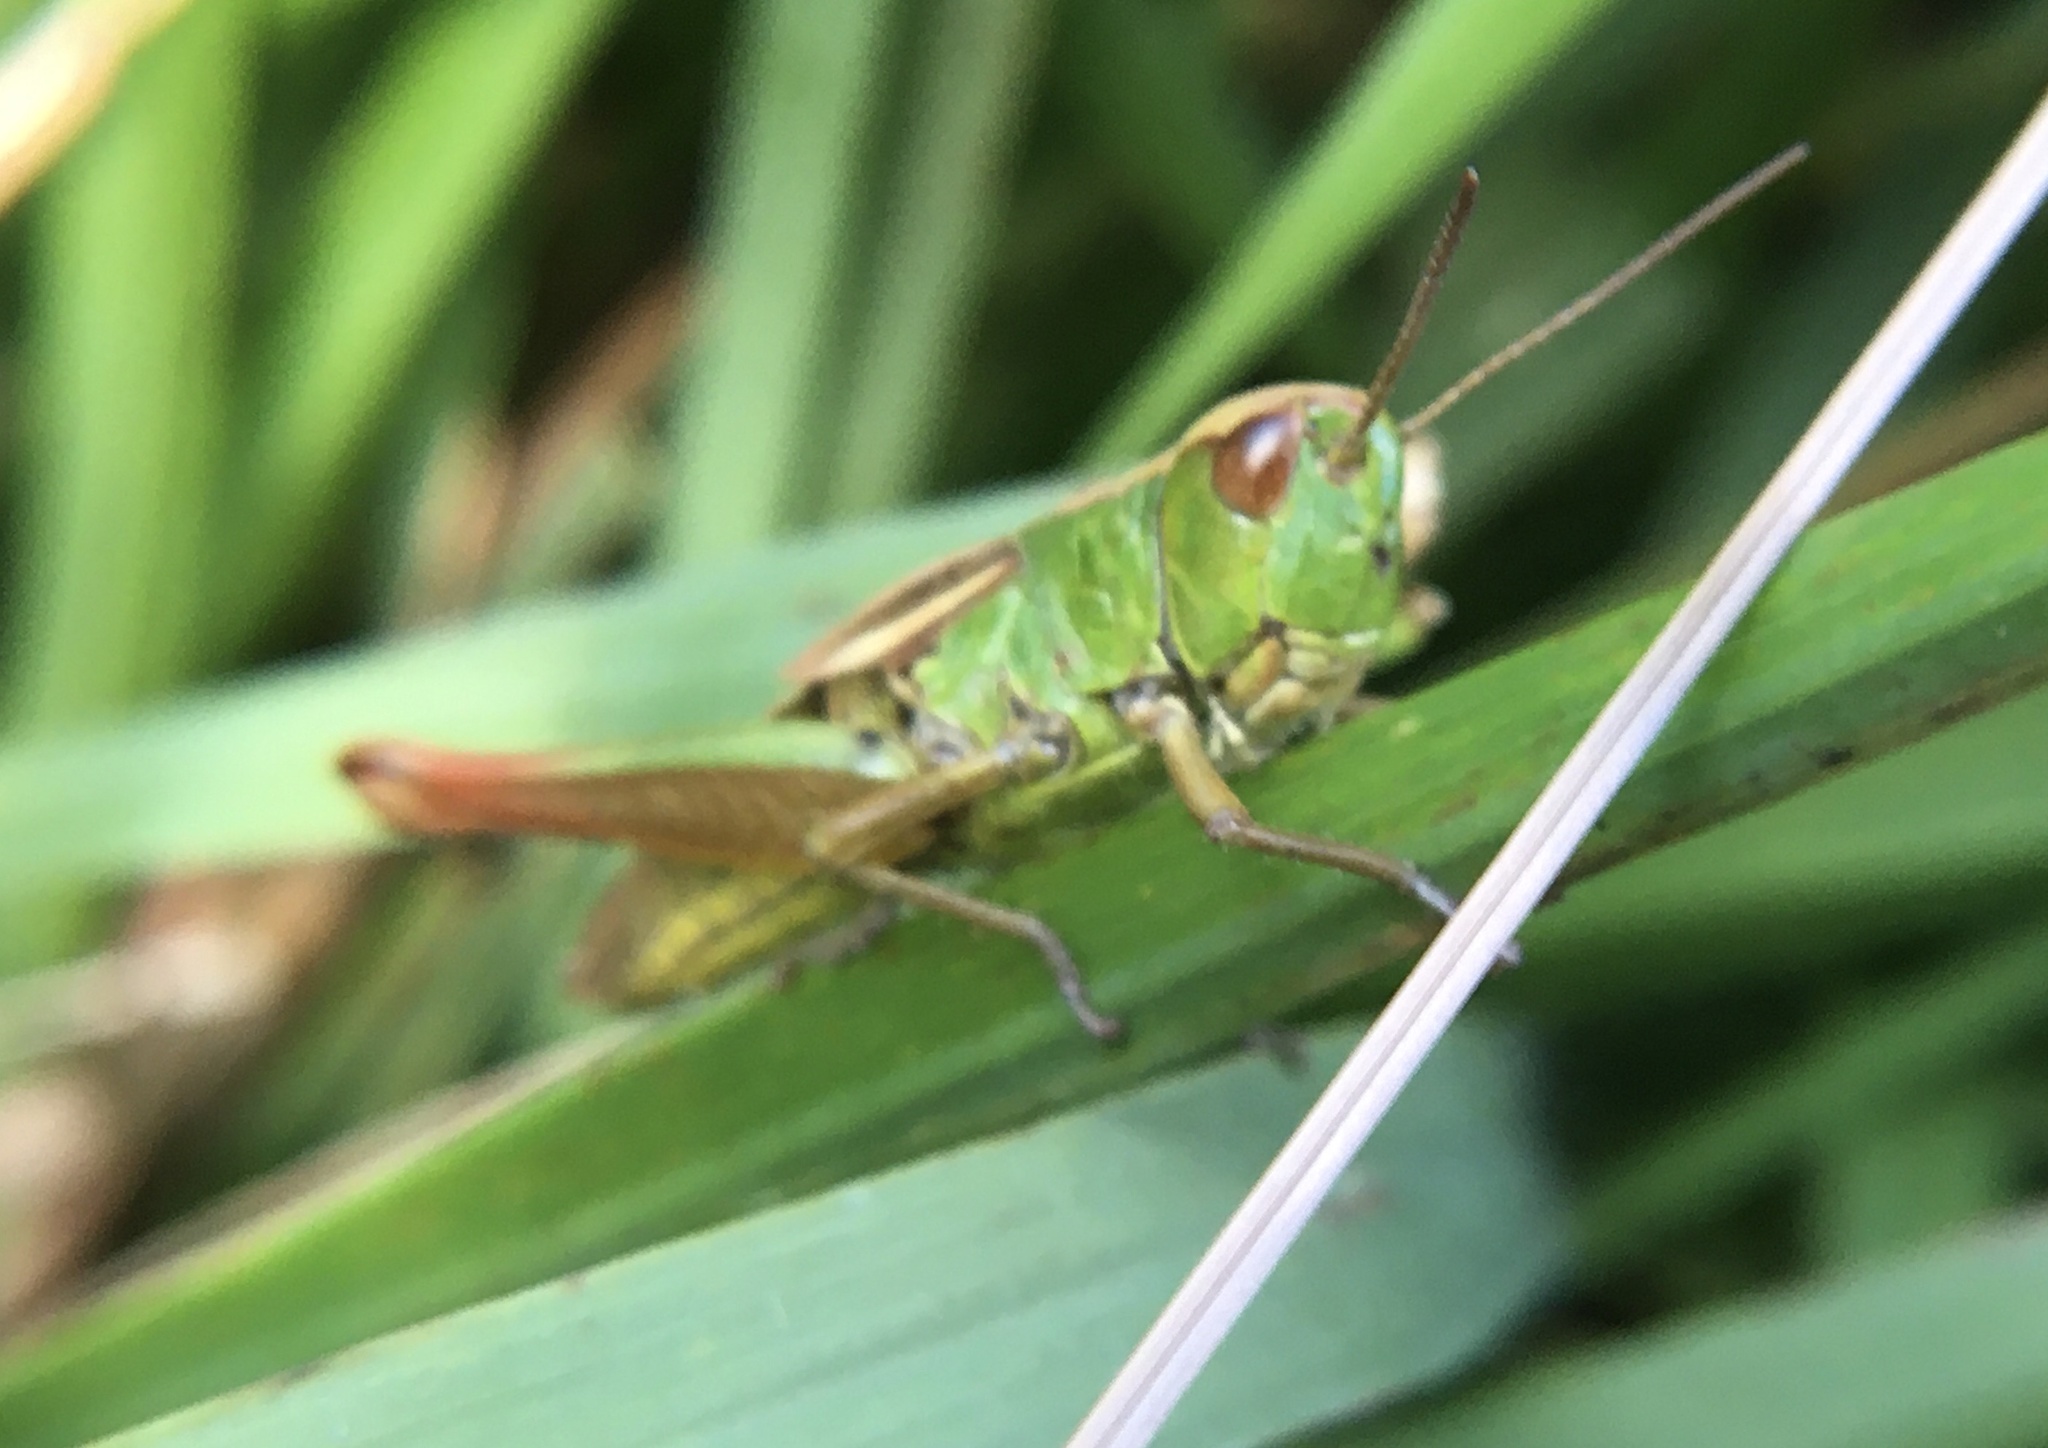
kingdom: Animalia
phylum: Arthropoda
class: Insecta
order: Orthoptera
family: Acrididae
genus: Pseudochorthippus
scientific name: Pseudochorthippus parallelus
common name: Meadow grasshopper
